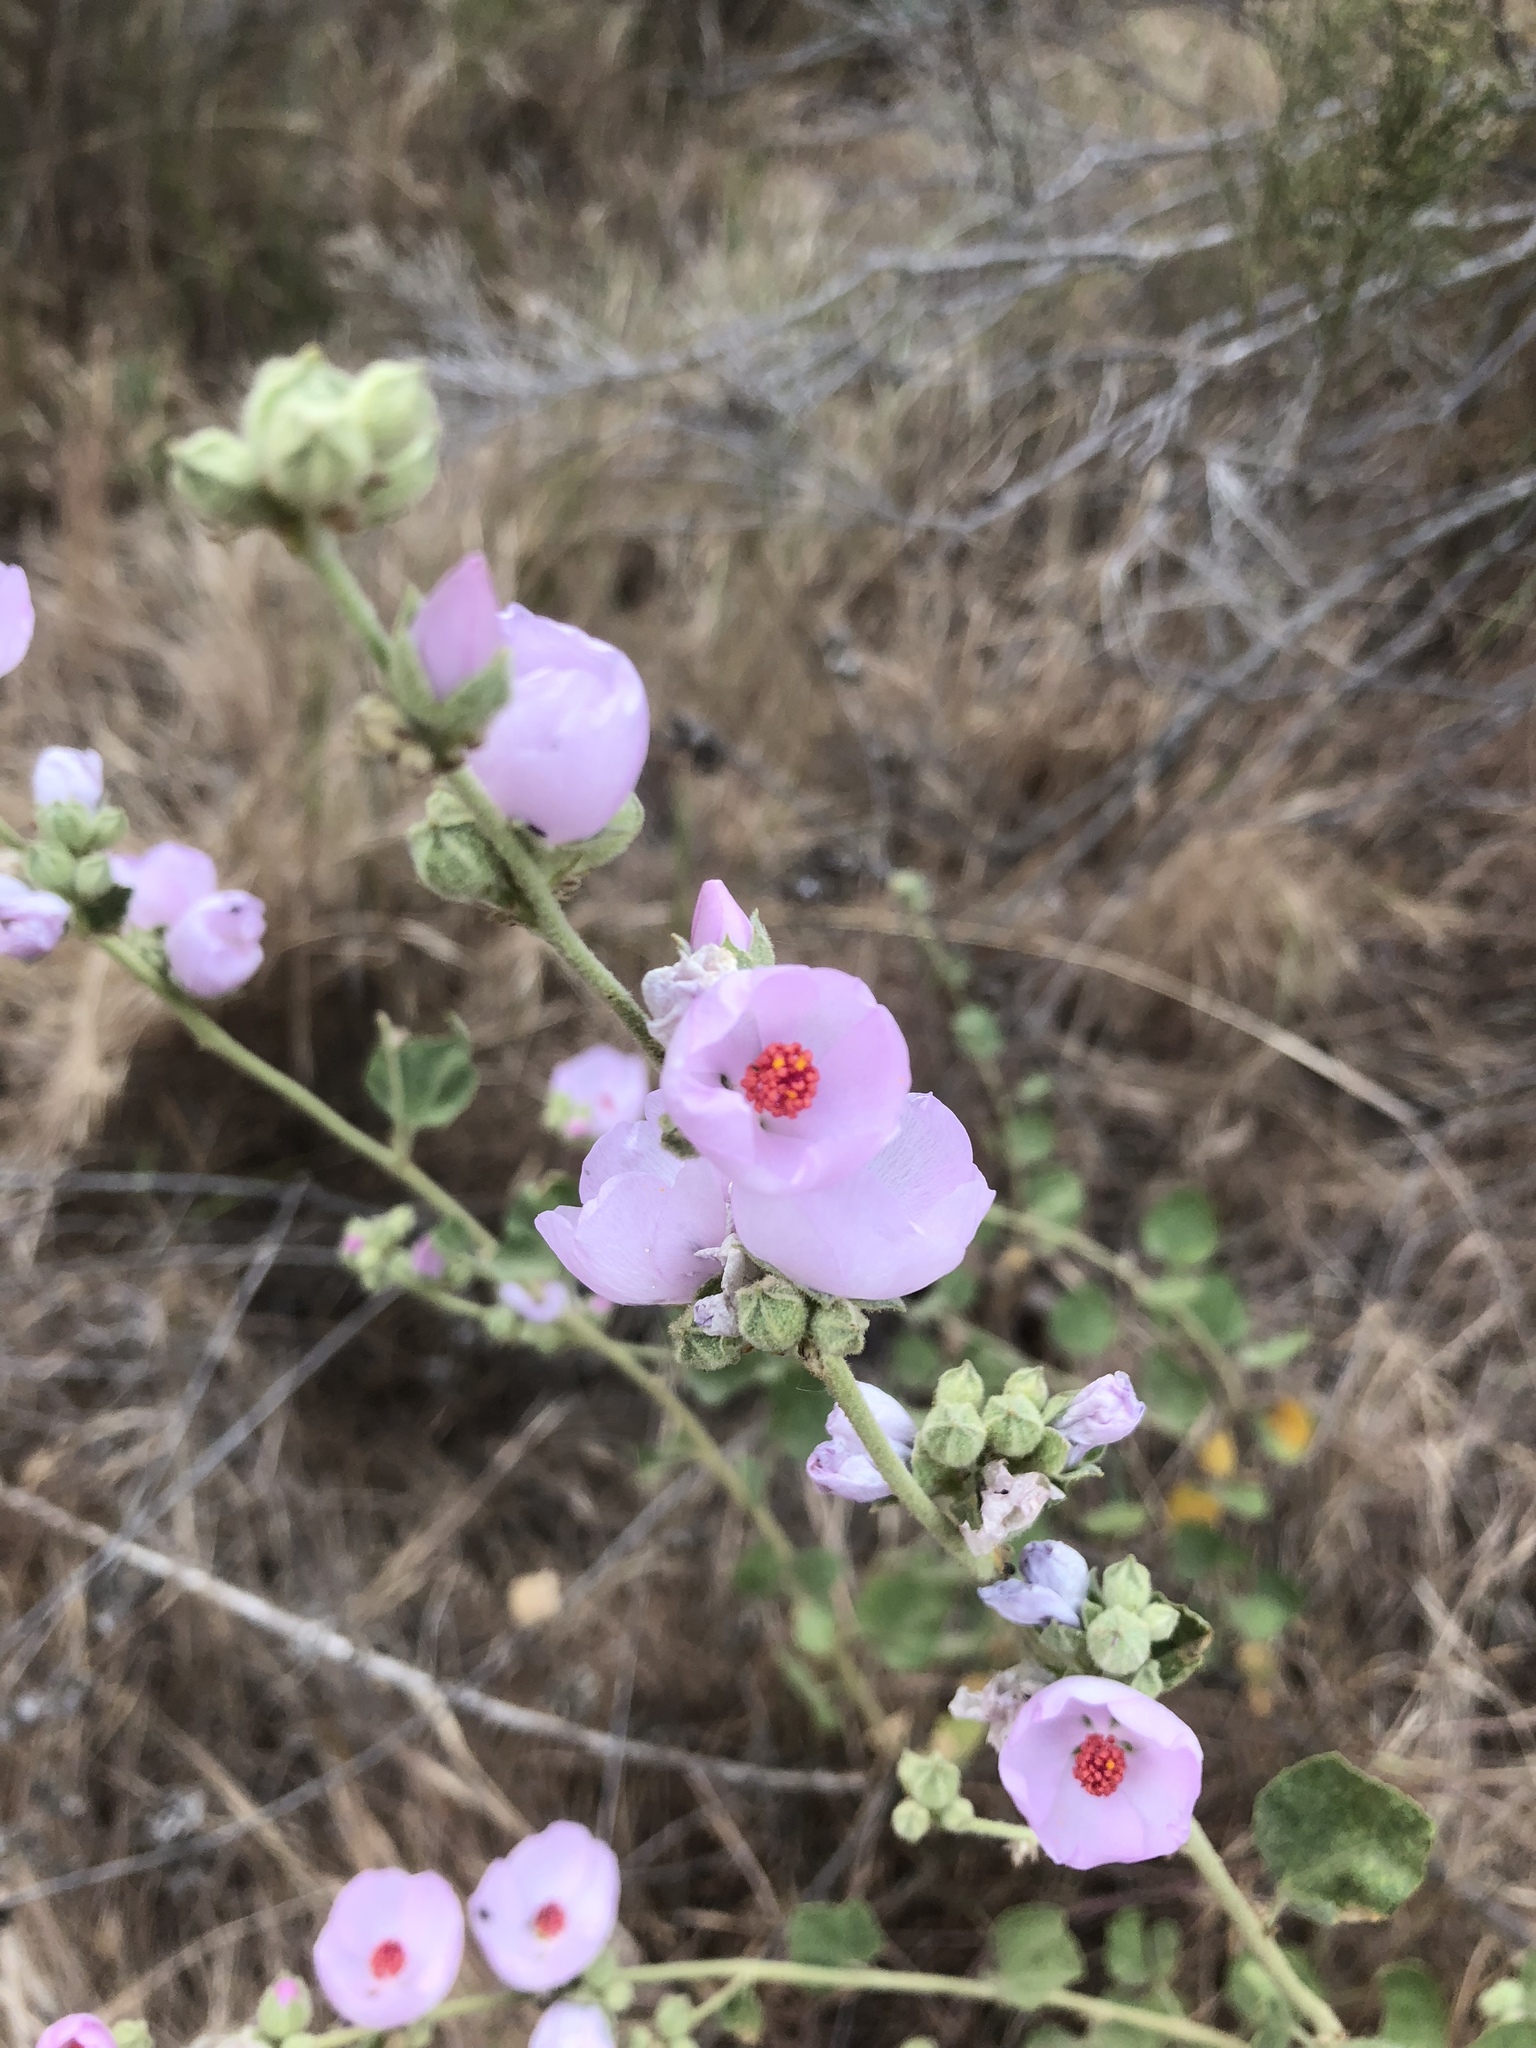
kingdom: Plantae
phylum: Tracheophyta
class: Magnoliopsida
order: Malvales
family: Malvaceae
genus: Malacothamnus
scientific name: Malacothamnus fasciculatus
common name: Sant cruz island bush-mallow
